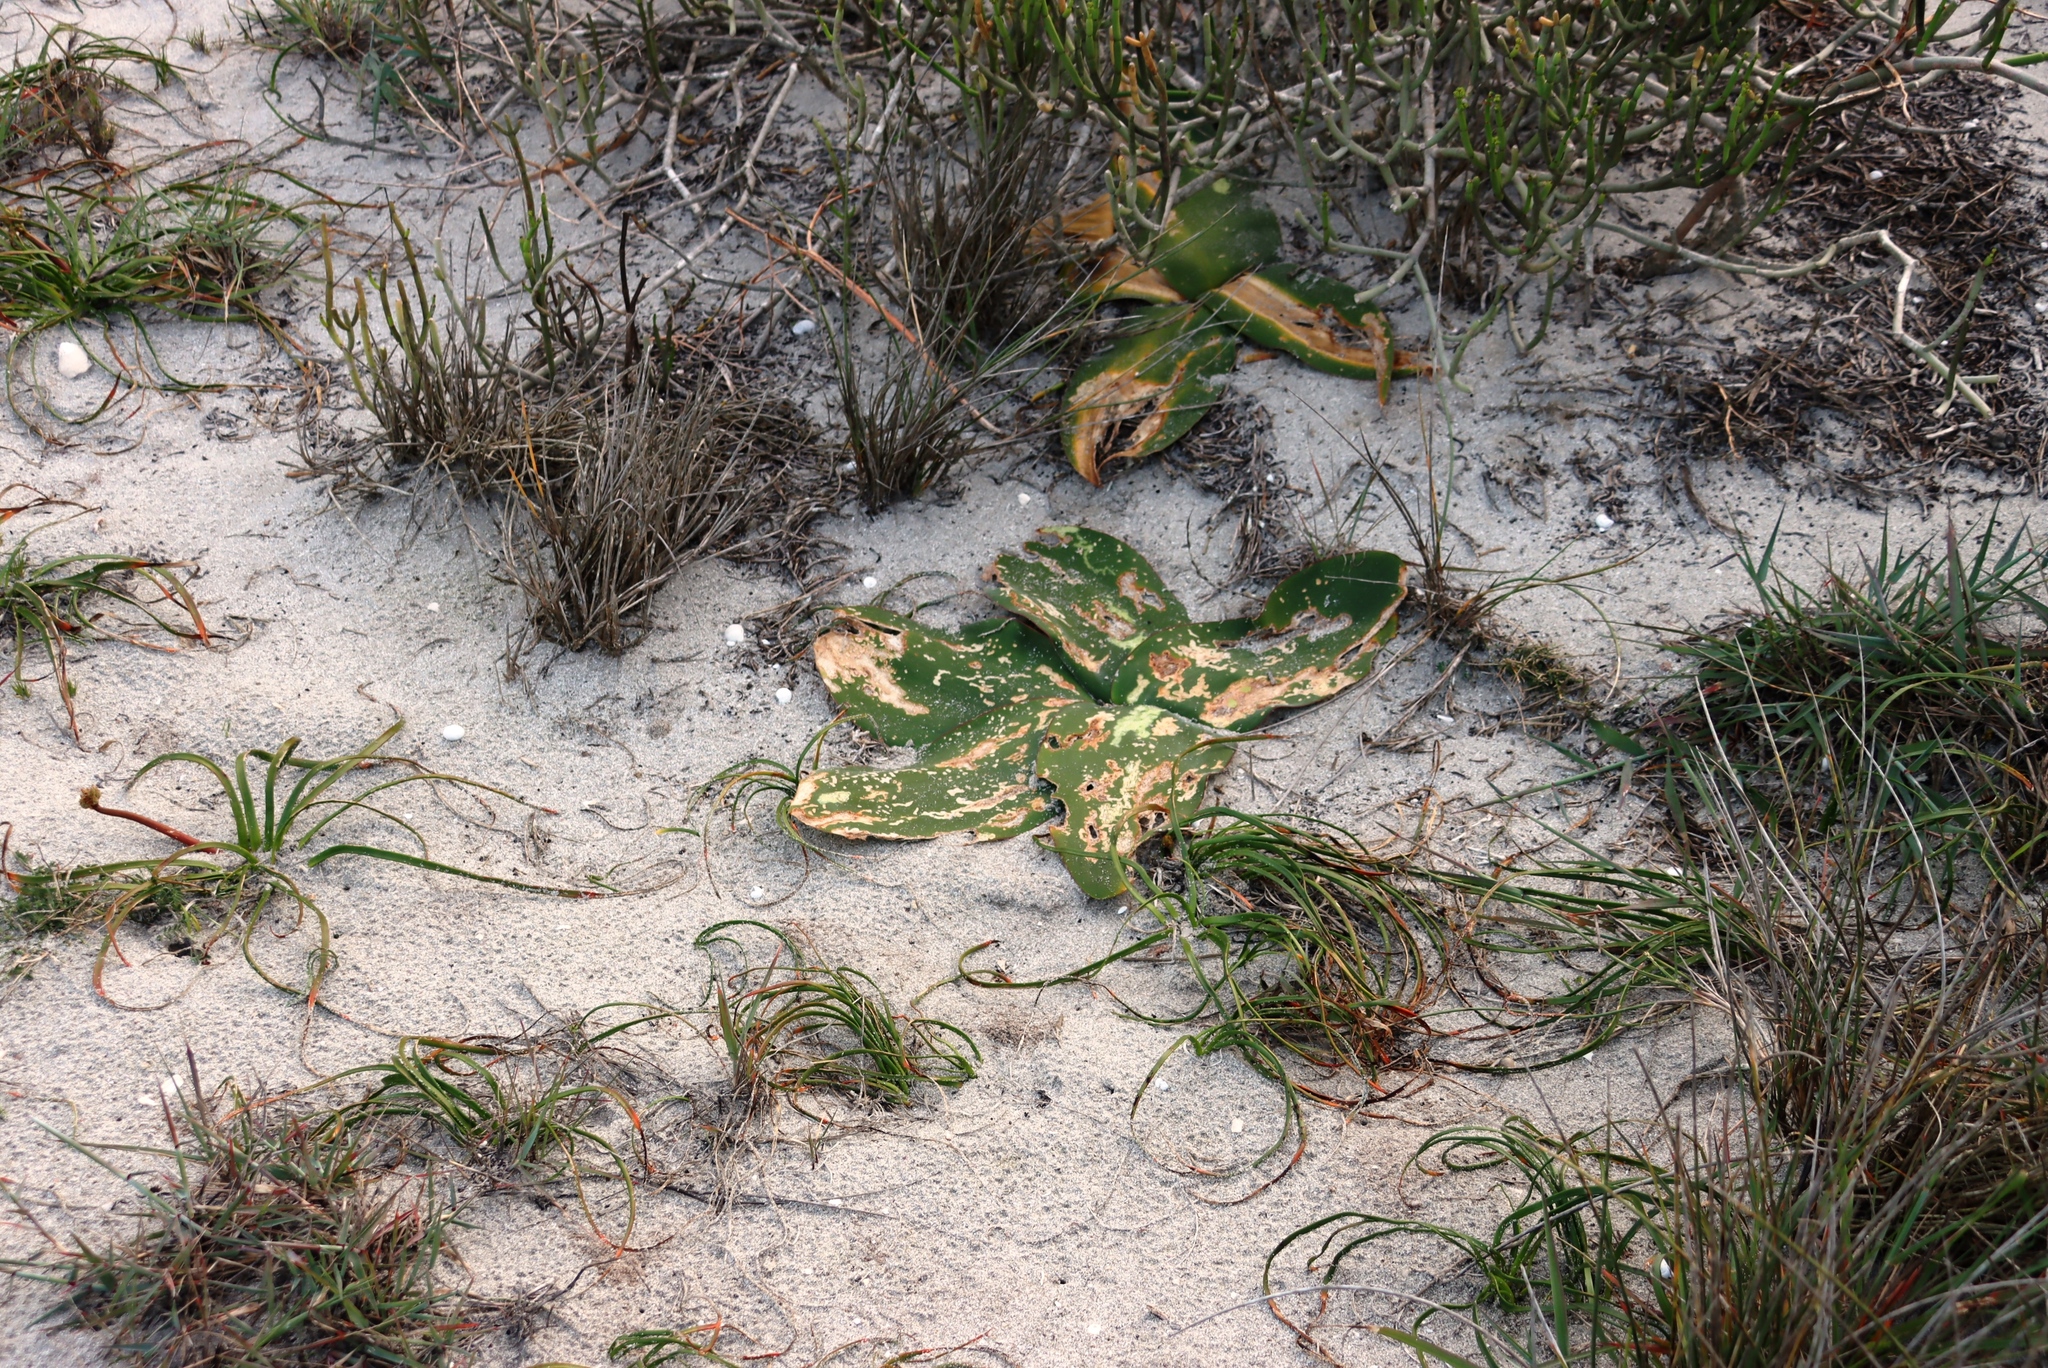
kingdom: Plantae
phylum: Tracheophyta
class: Liliopsida
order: Asparagales
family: Amaryllidaceae
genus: Brunsvigia
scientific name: Brunsvigia orientalis
